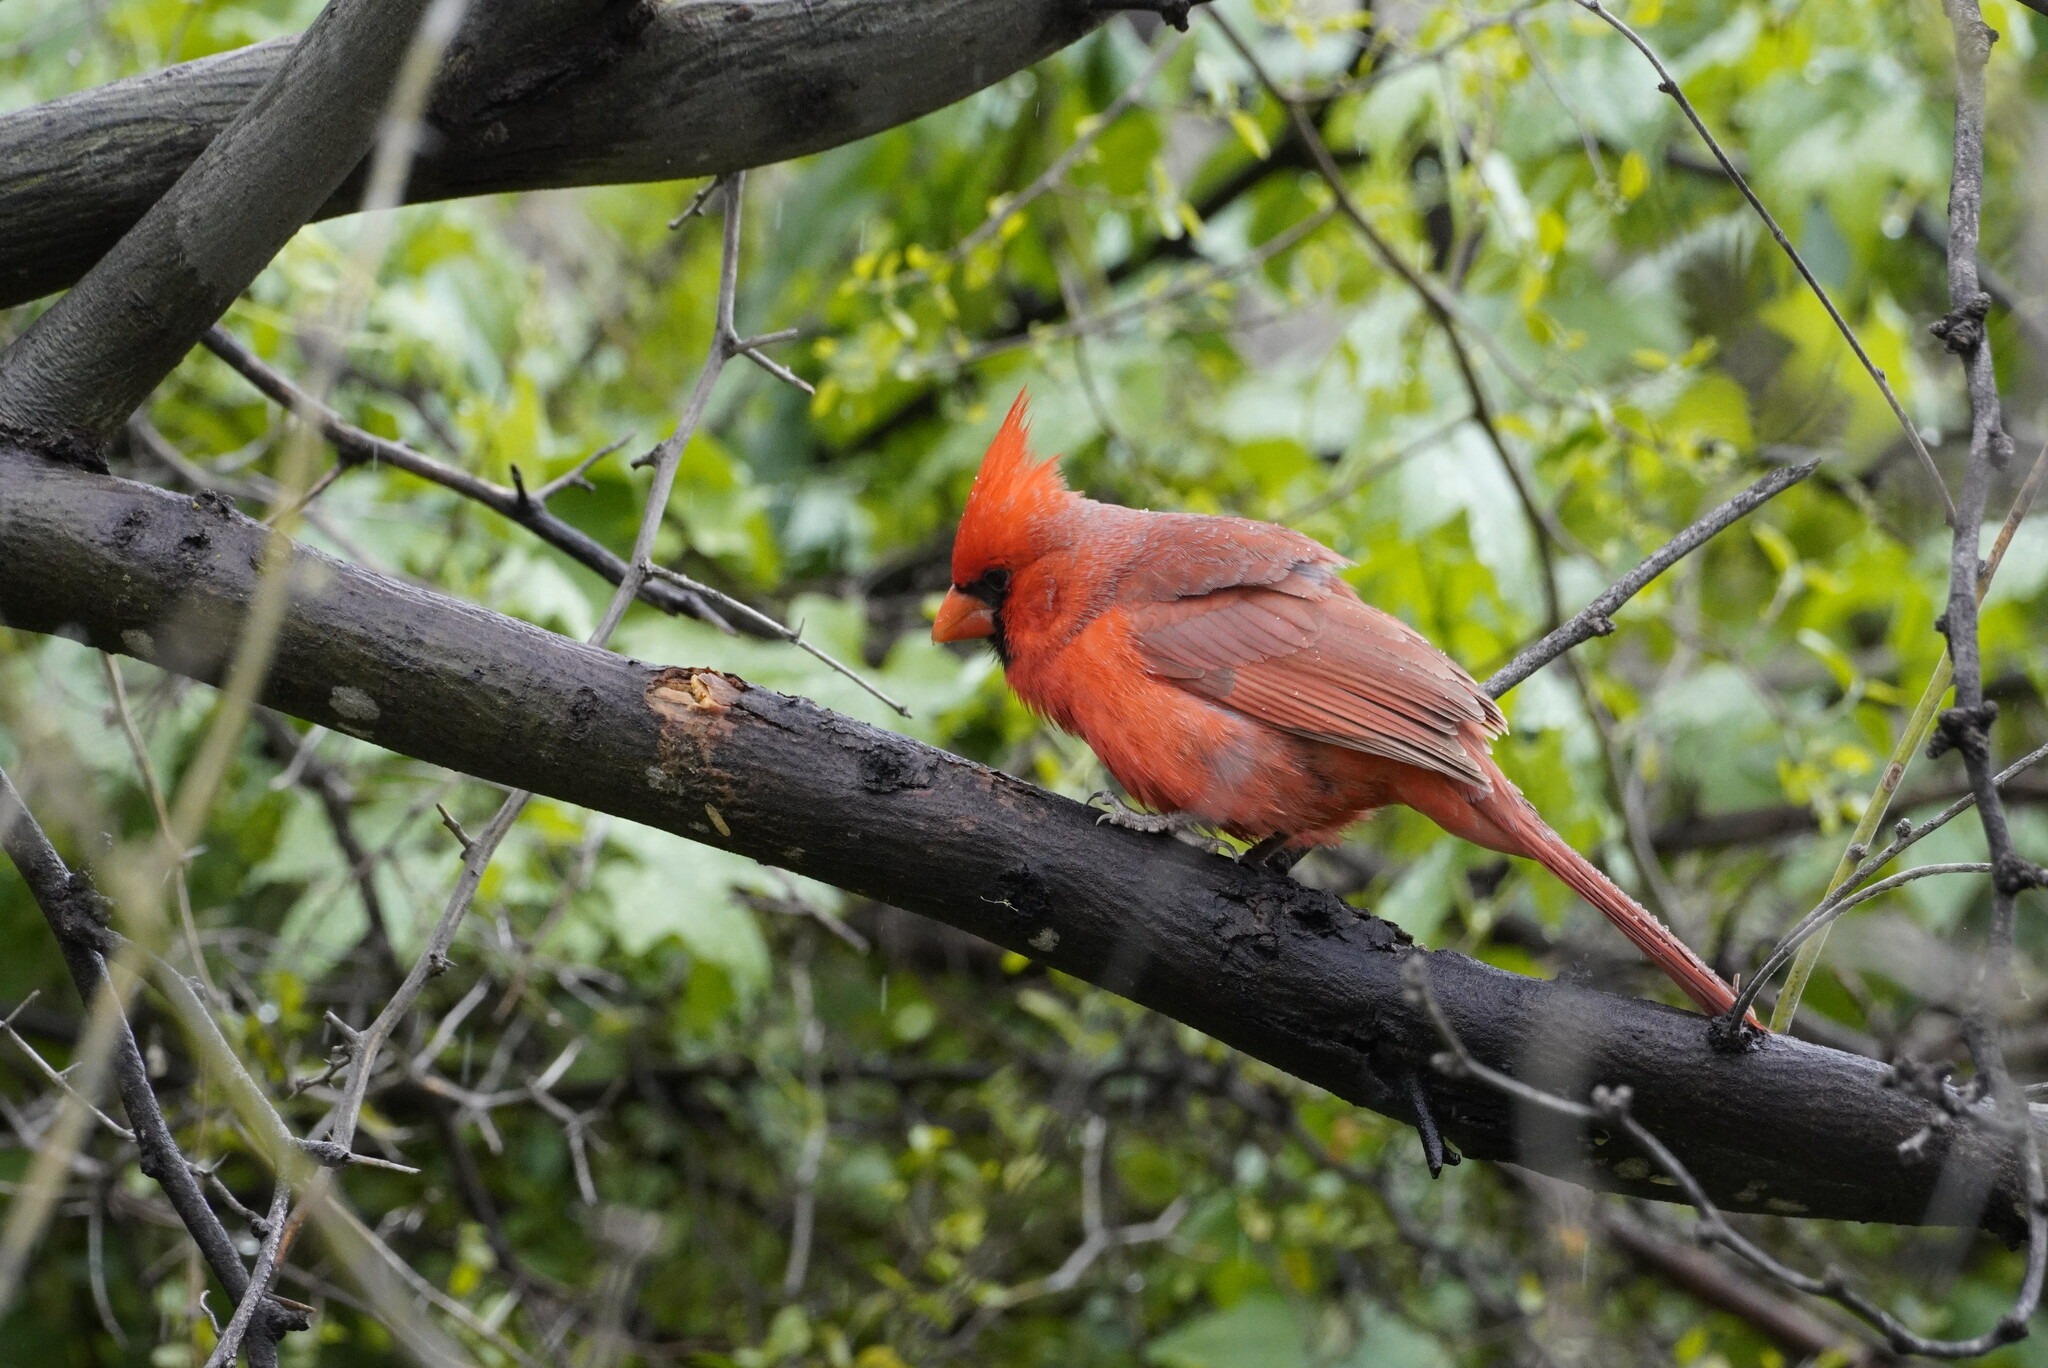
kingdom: Animalia
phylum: Chordata
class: Aves
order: Passeriformes
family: Cardinalidae
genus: Cardinalis
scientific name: Cardinalis cardinalis
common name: Northern cardinal
